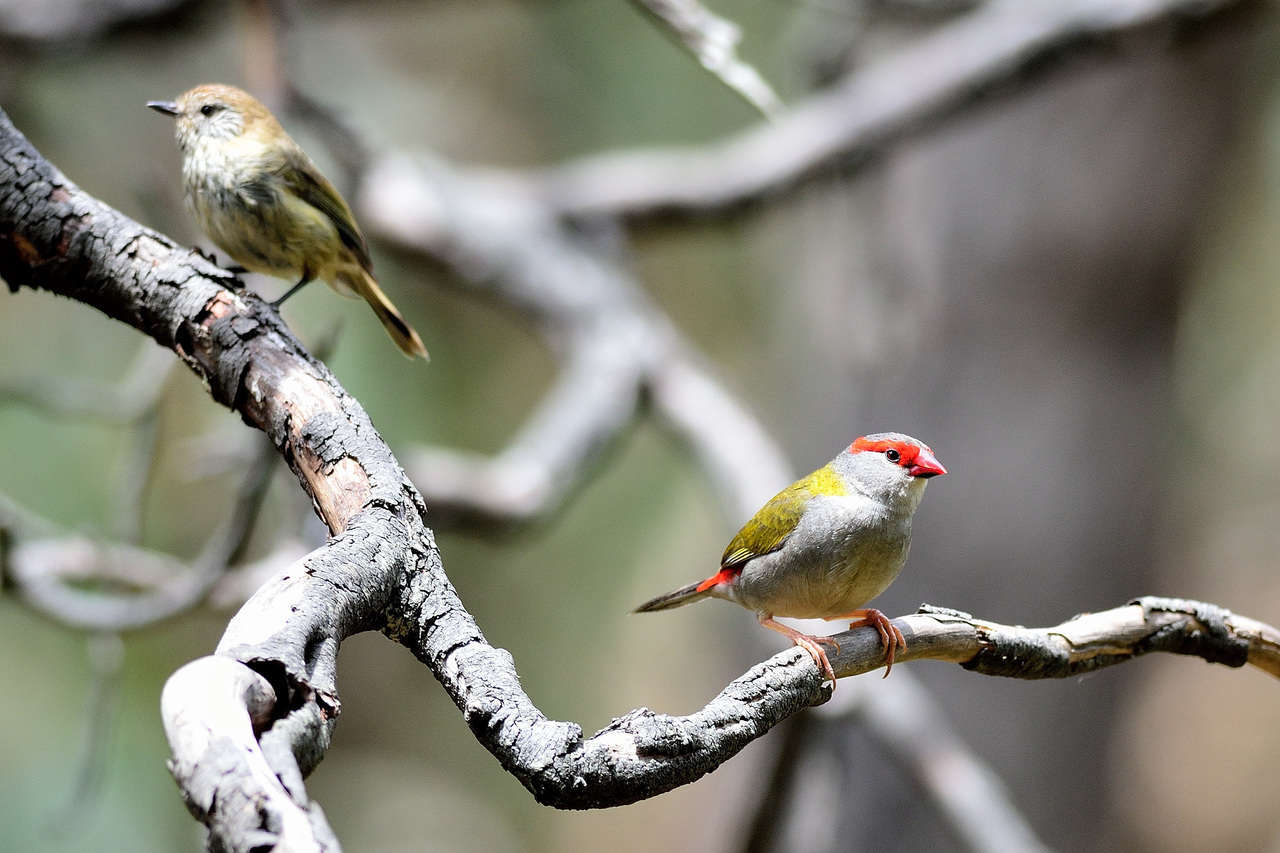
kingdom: Animalia
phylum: Chordata
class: Aves
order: Passeriformes
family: Estrildidae
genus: Neochmia
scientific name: Neochmia temporalis
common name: Red-browed finch
